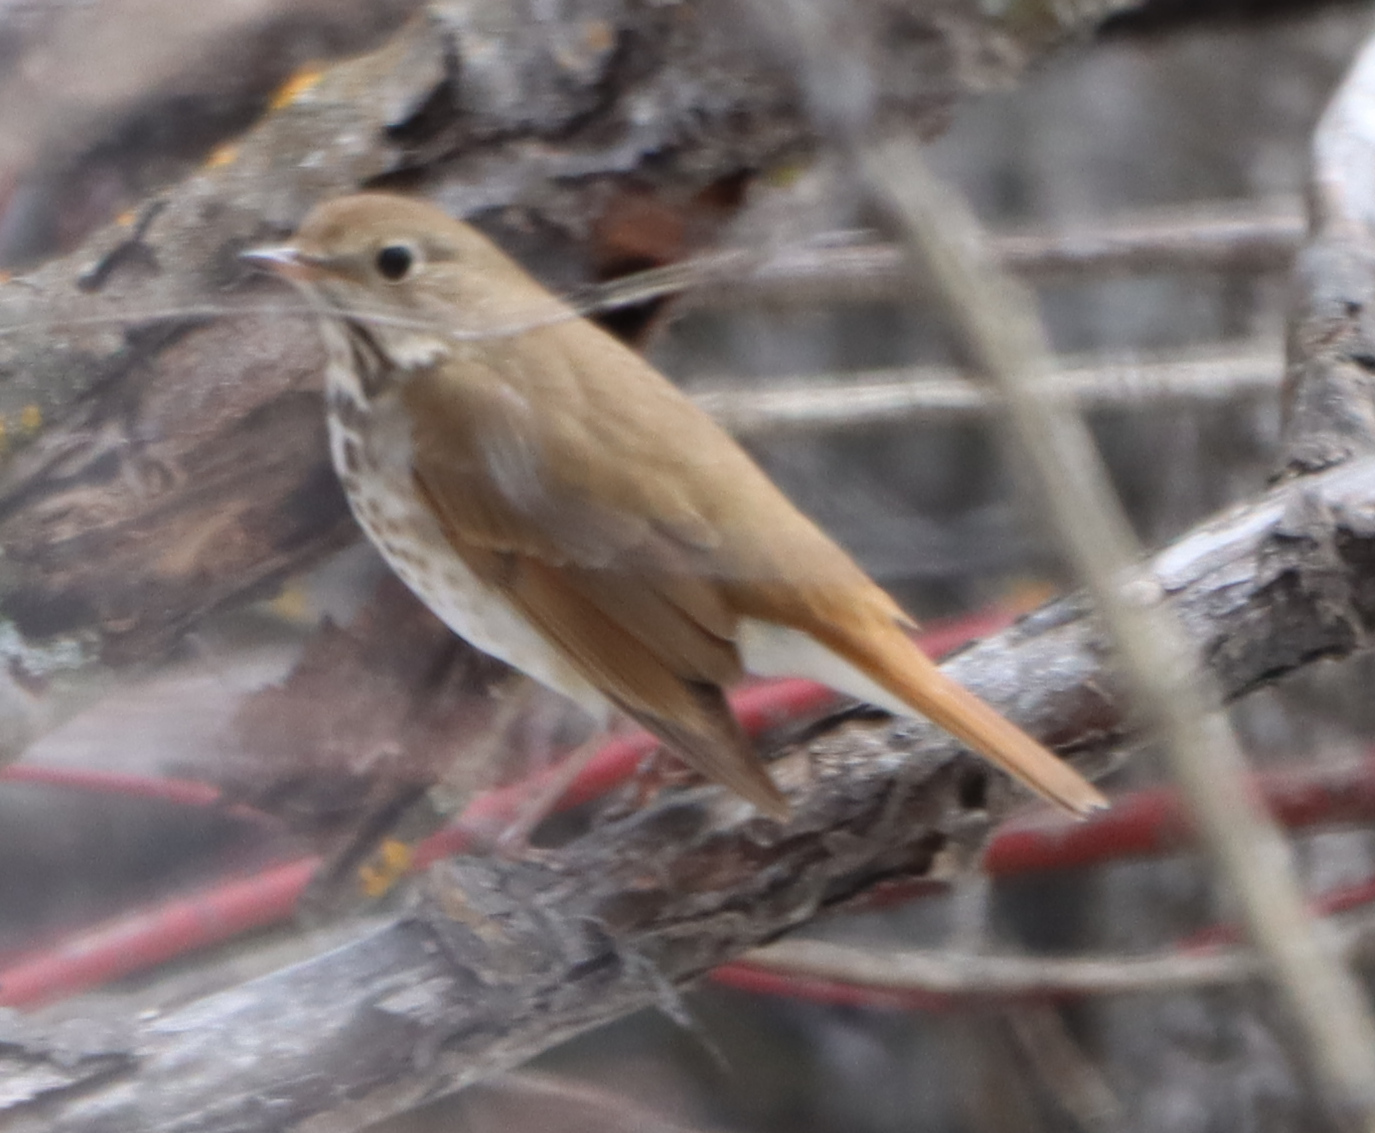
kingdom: Animalia
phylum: Chordata
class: Aves
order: Passeriformes
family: Turdidae
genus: Catharus
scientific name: Catharus guttatus
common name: Hermit thrush
